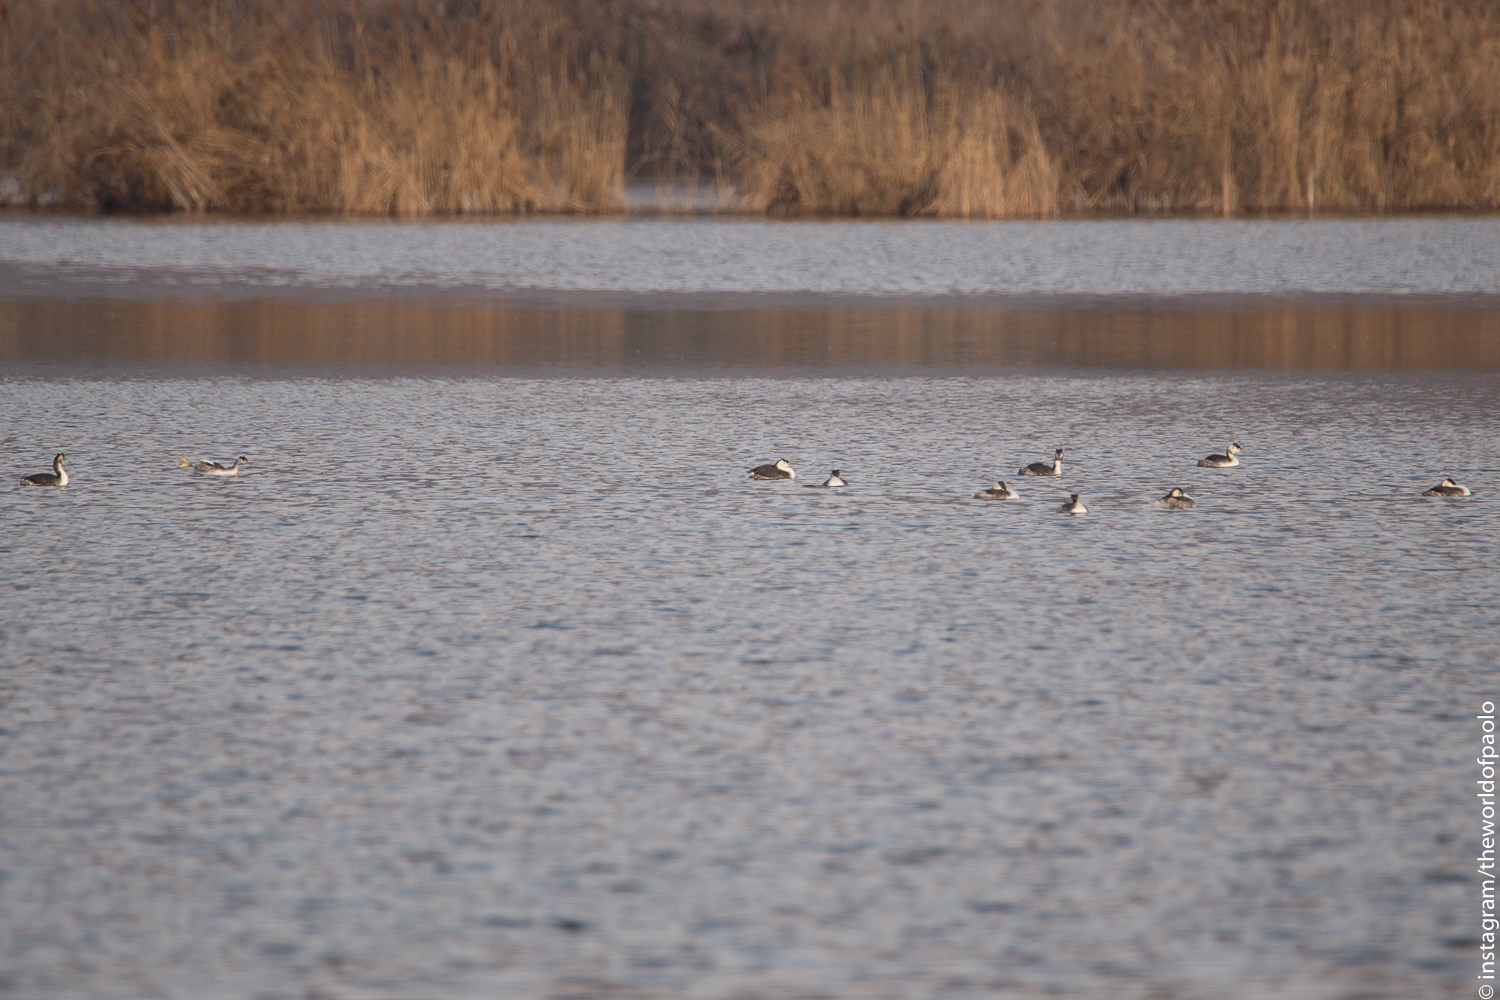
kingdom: Animalia
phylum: Chordata
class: Aves
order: Podicipediformes
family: Podicipedidae
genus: Podiceps
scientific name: Podiceps cristatus
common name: Great crested grebe
